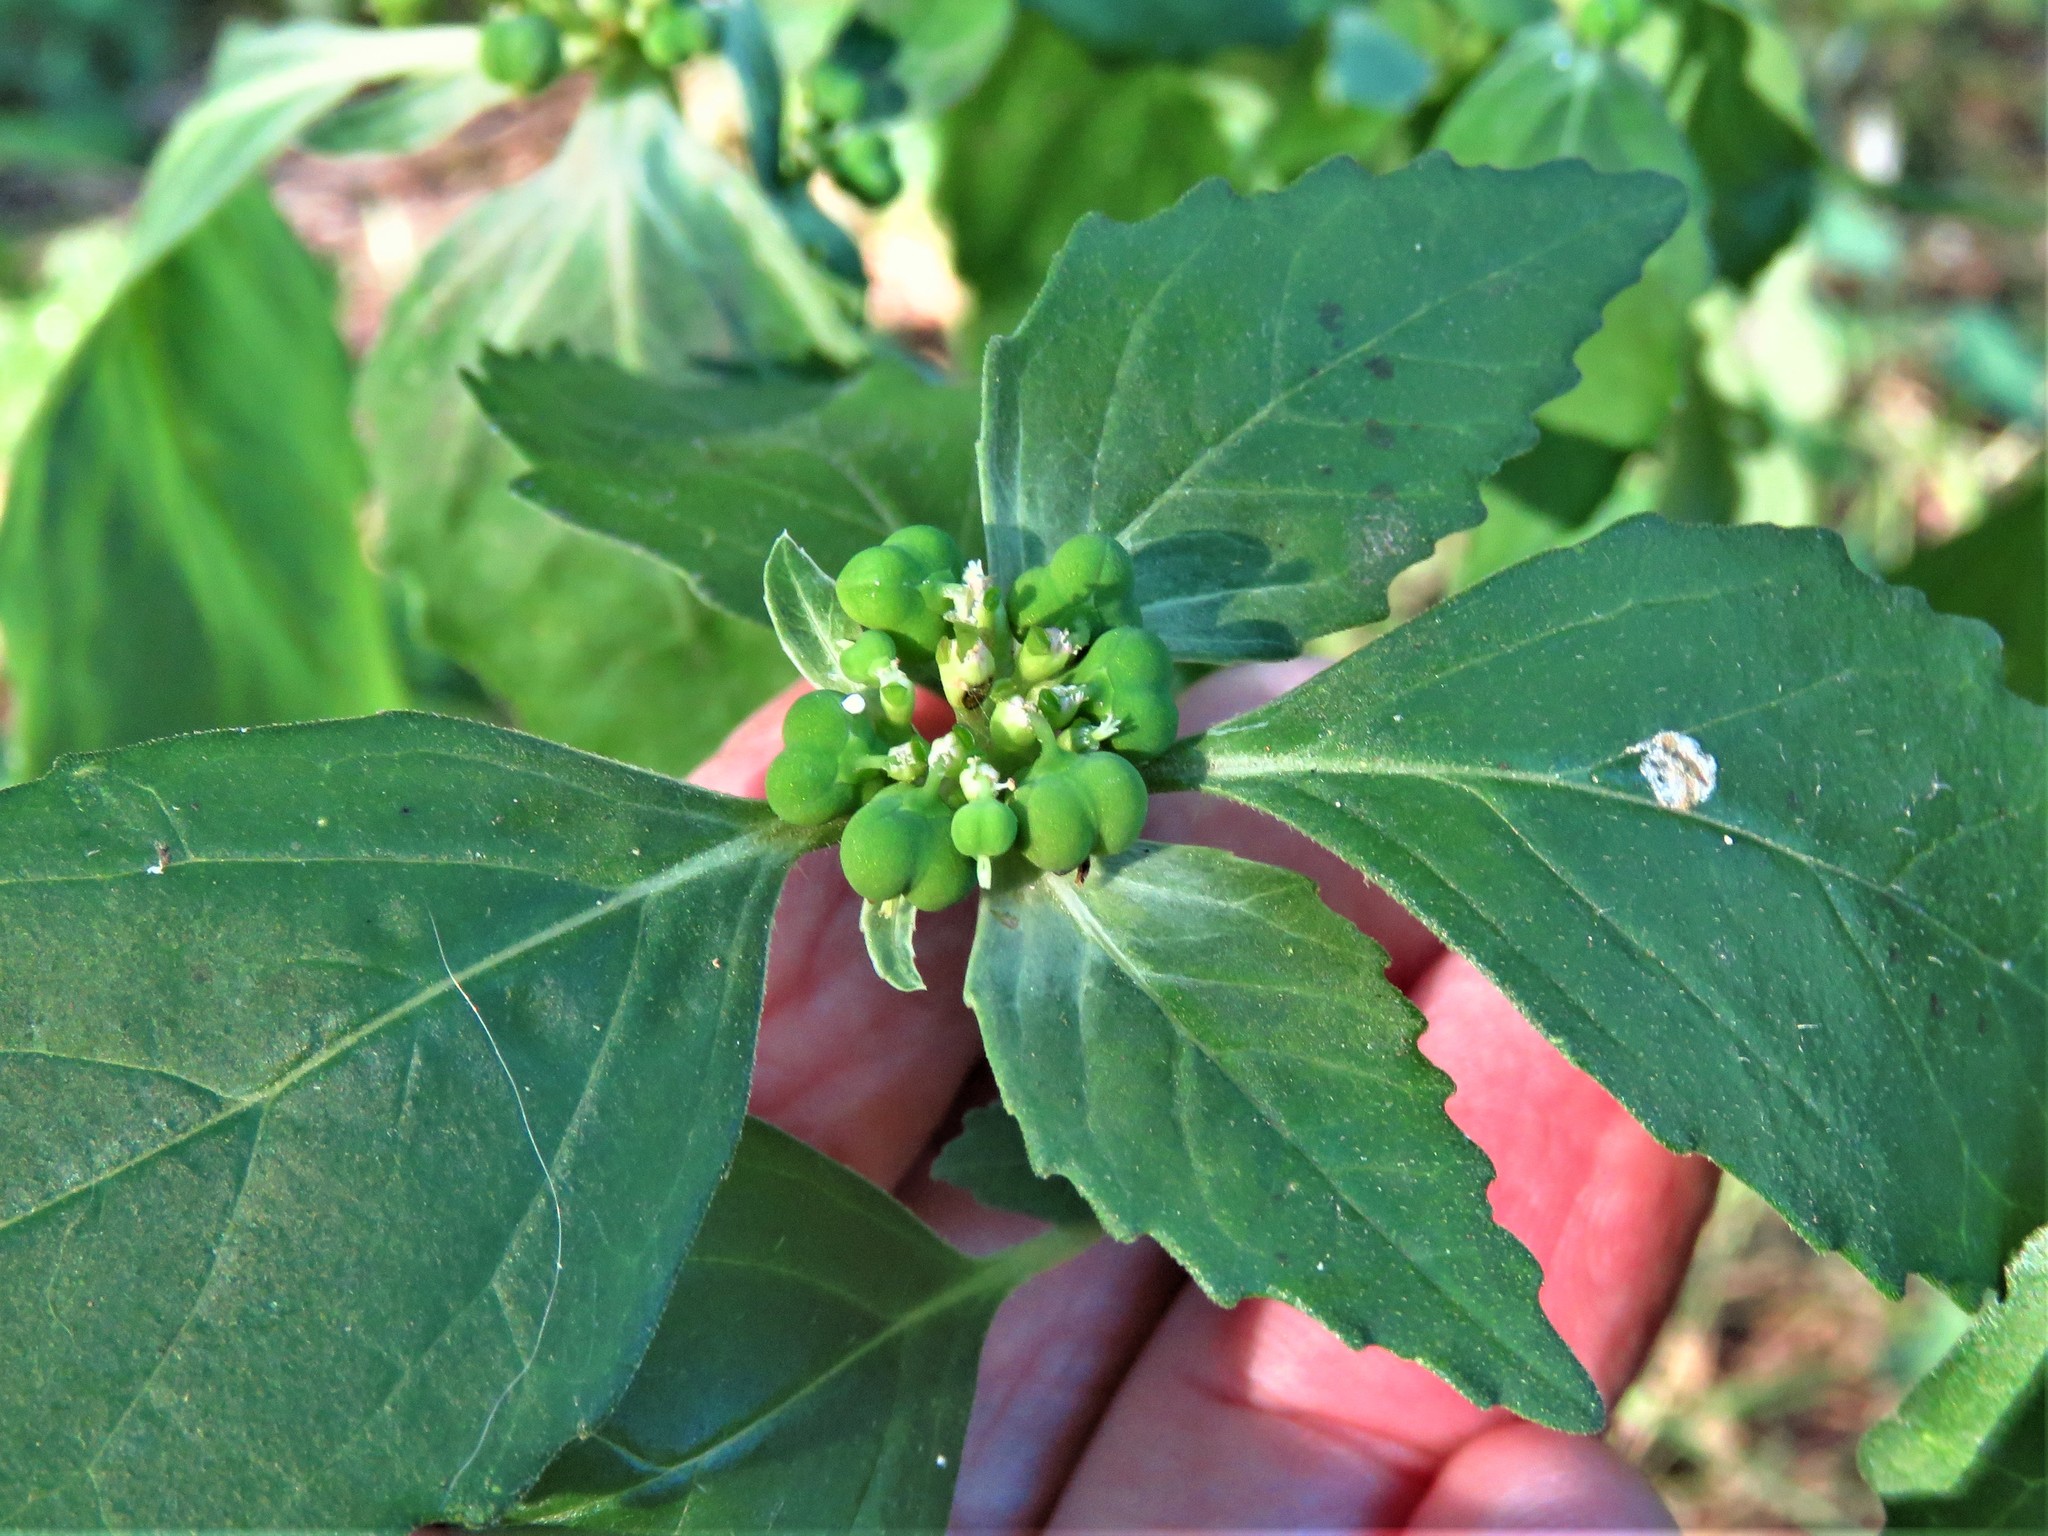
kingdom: Plantae
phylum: Tracheophyta
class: Magnoliopsida
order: Malpighiales
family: Euphorbiaceae
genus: Euphorbia
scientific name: Euphorbia dentata
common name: Dentate spurge
